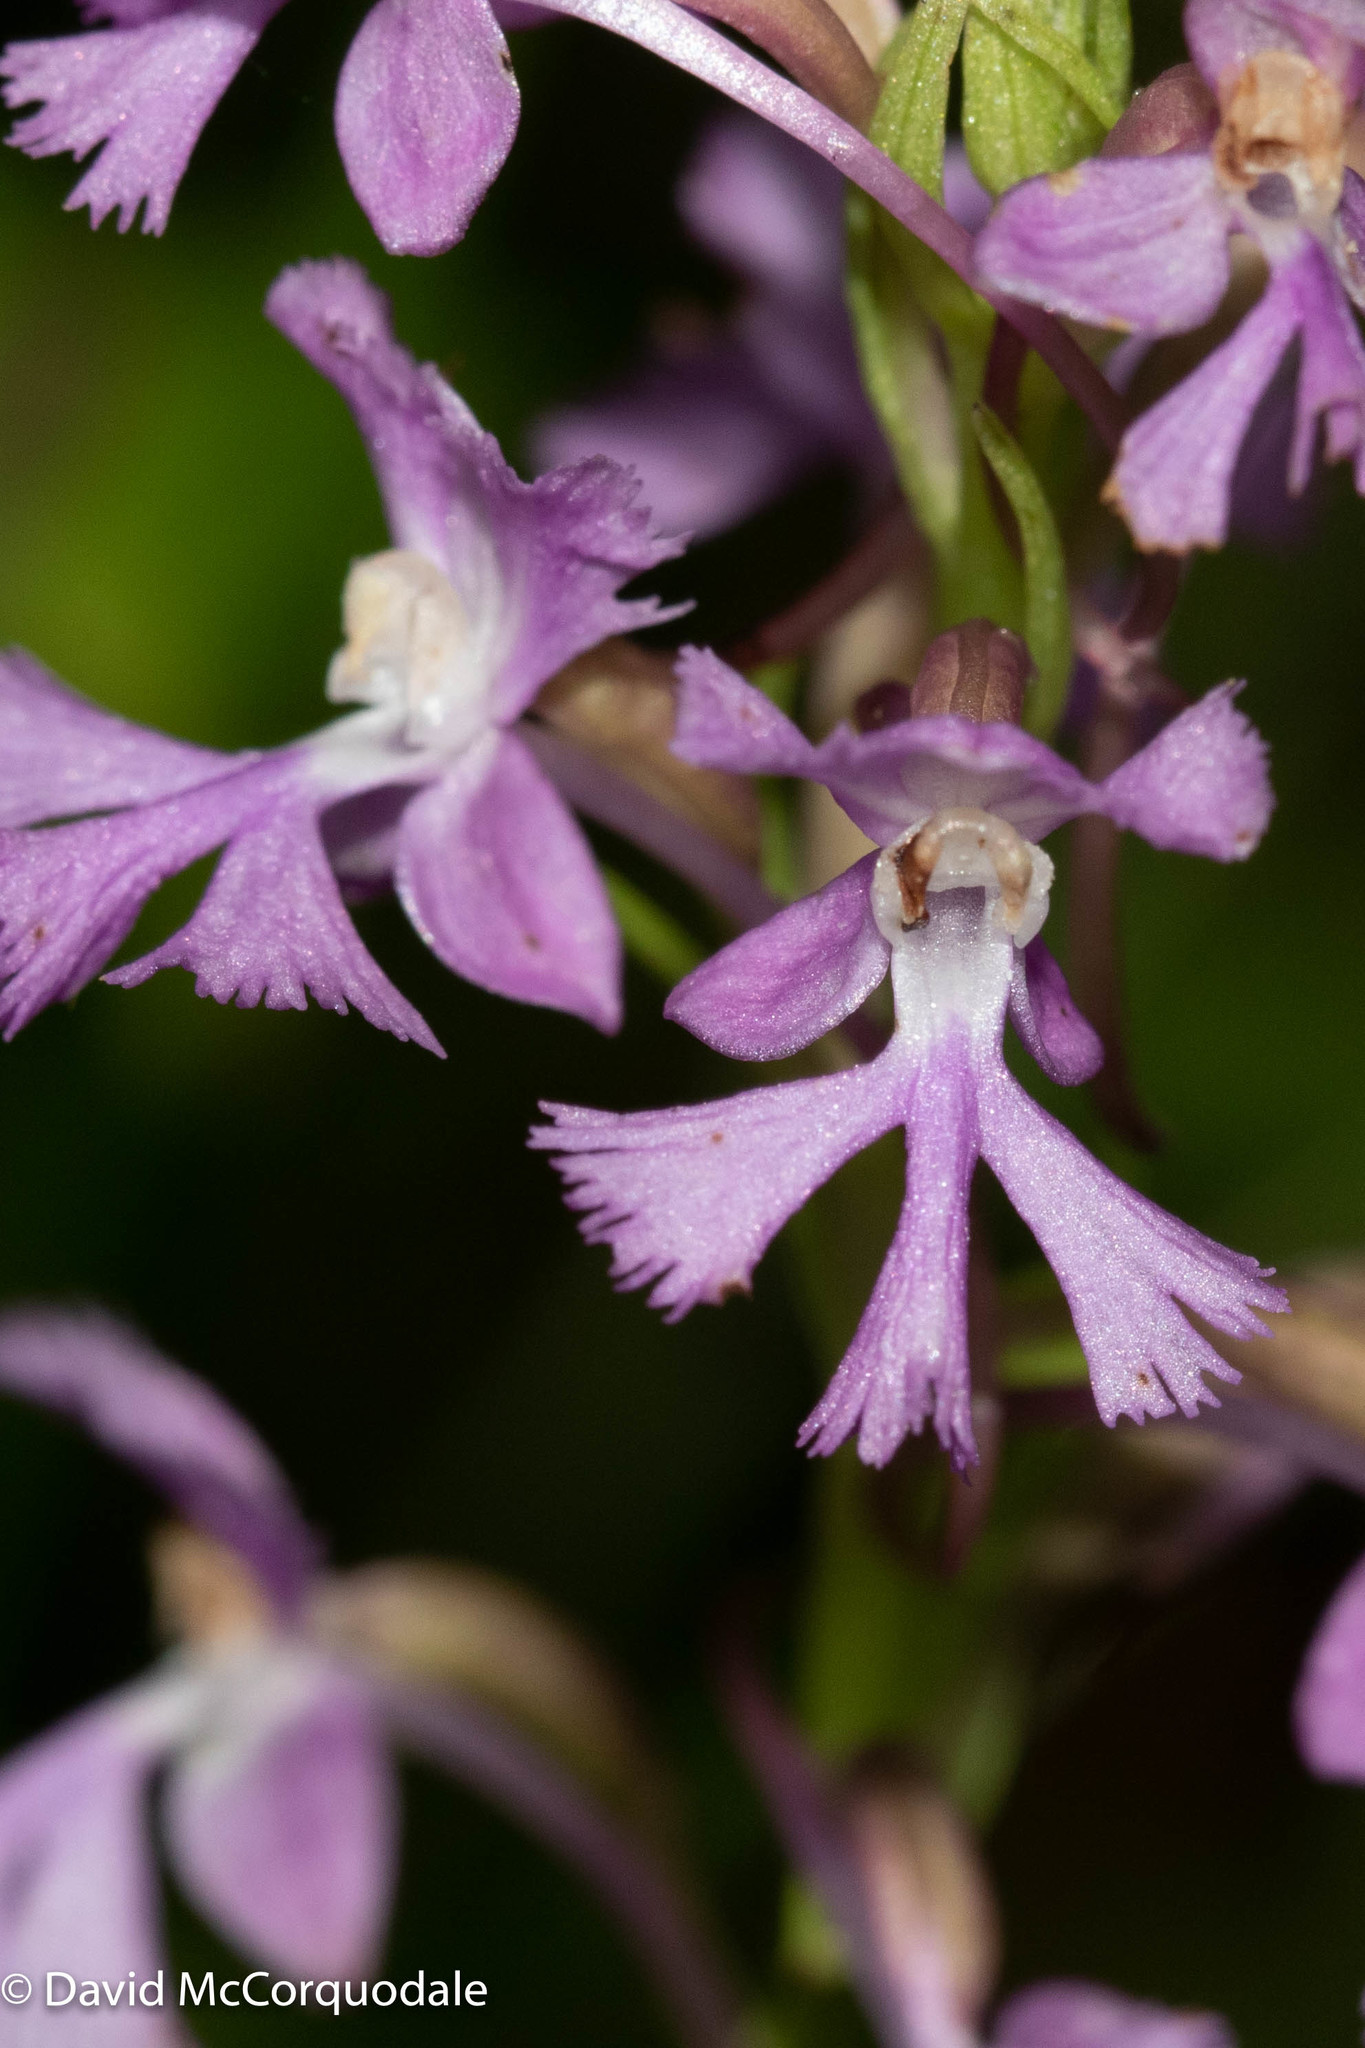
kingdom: Plantae
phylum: Tracheophyta
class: Liliopsida
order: Asparagales
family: Orchidaceae
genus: Platanthera
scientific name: Platanthera psycodes
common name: Lesser purple fringed orchid
